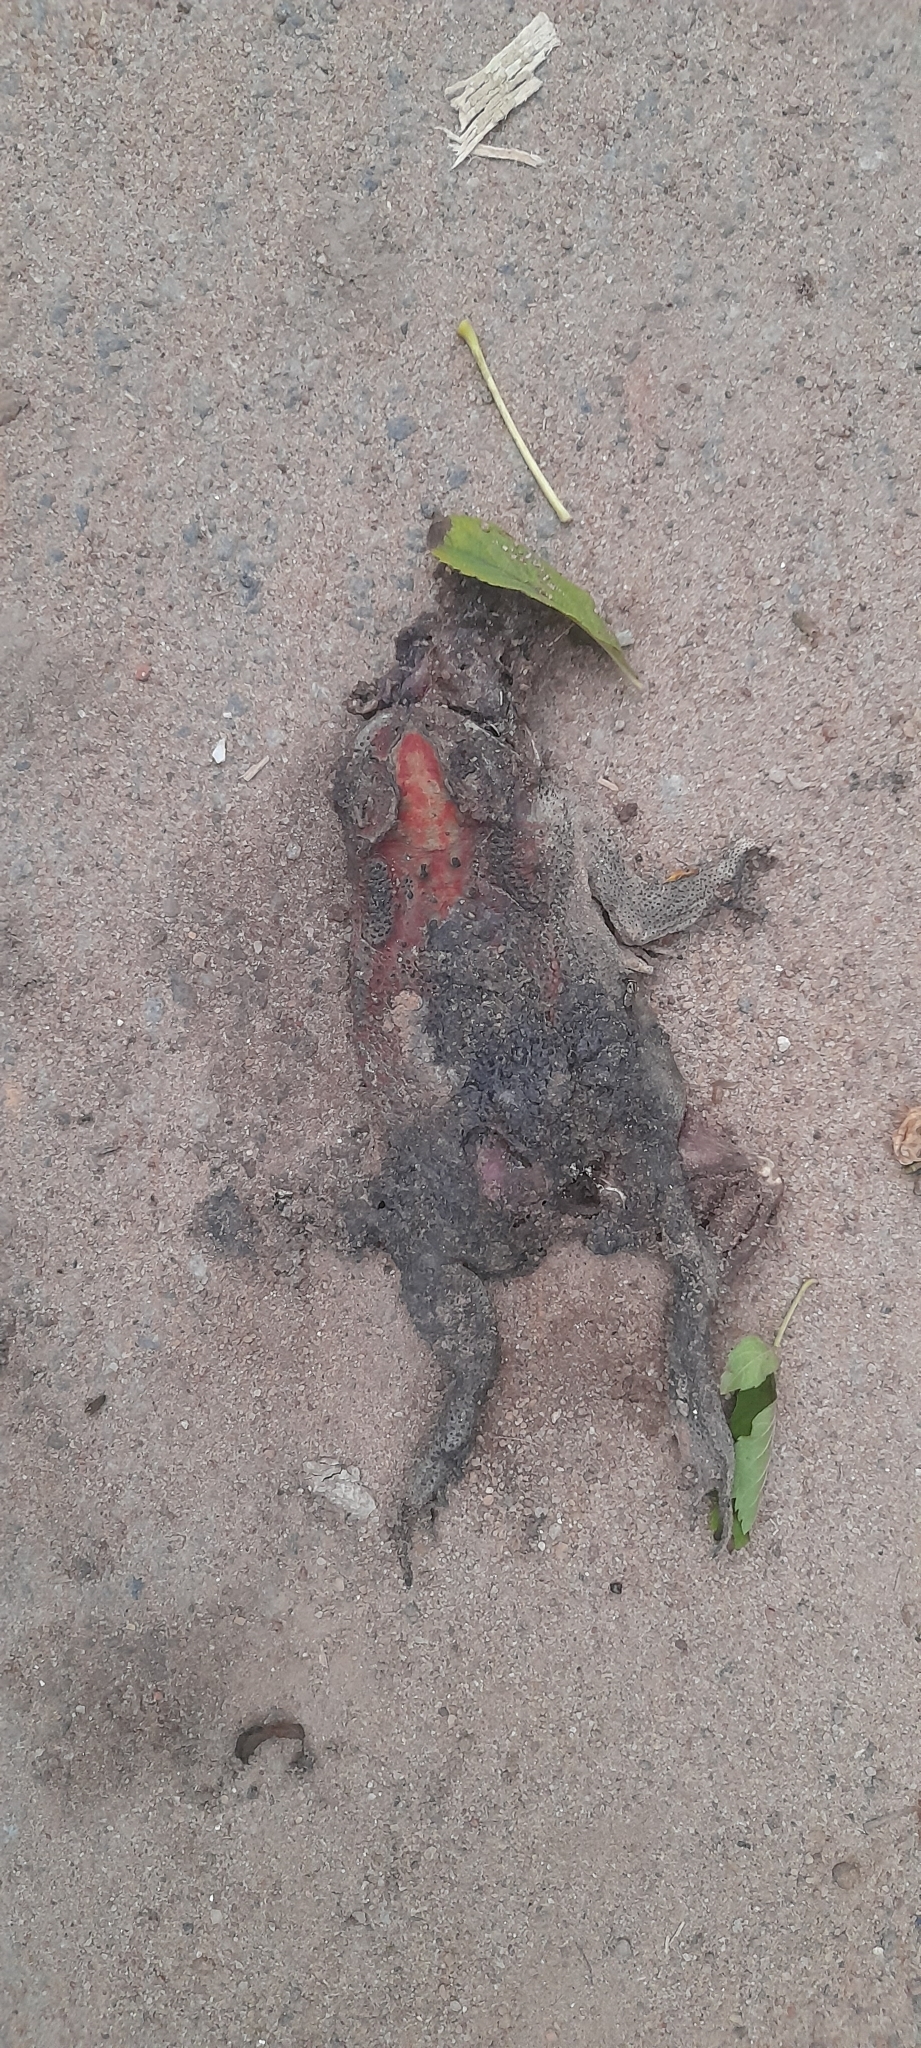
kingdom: Animalia
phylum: Chordata
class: Amphibia
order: Anura
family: Bufonidae
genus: Duttaphrynus
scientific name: Duttaphrynus melanostictus
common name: Common sunda toad
